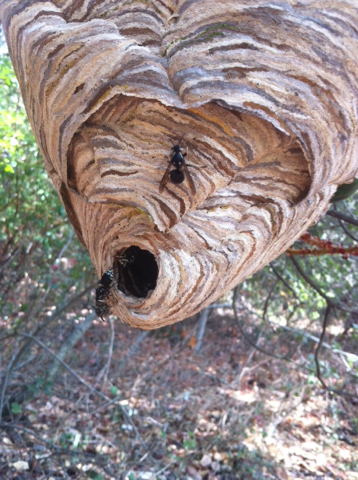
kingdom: Animalia
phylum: Arthropoda
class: Insecta
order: Hymenoptera
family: Vespidae
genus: Dolichovespula
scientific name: Dolichovespula maculata
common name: Bald-faced hornet
